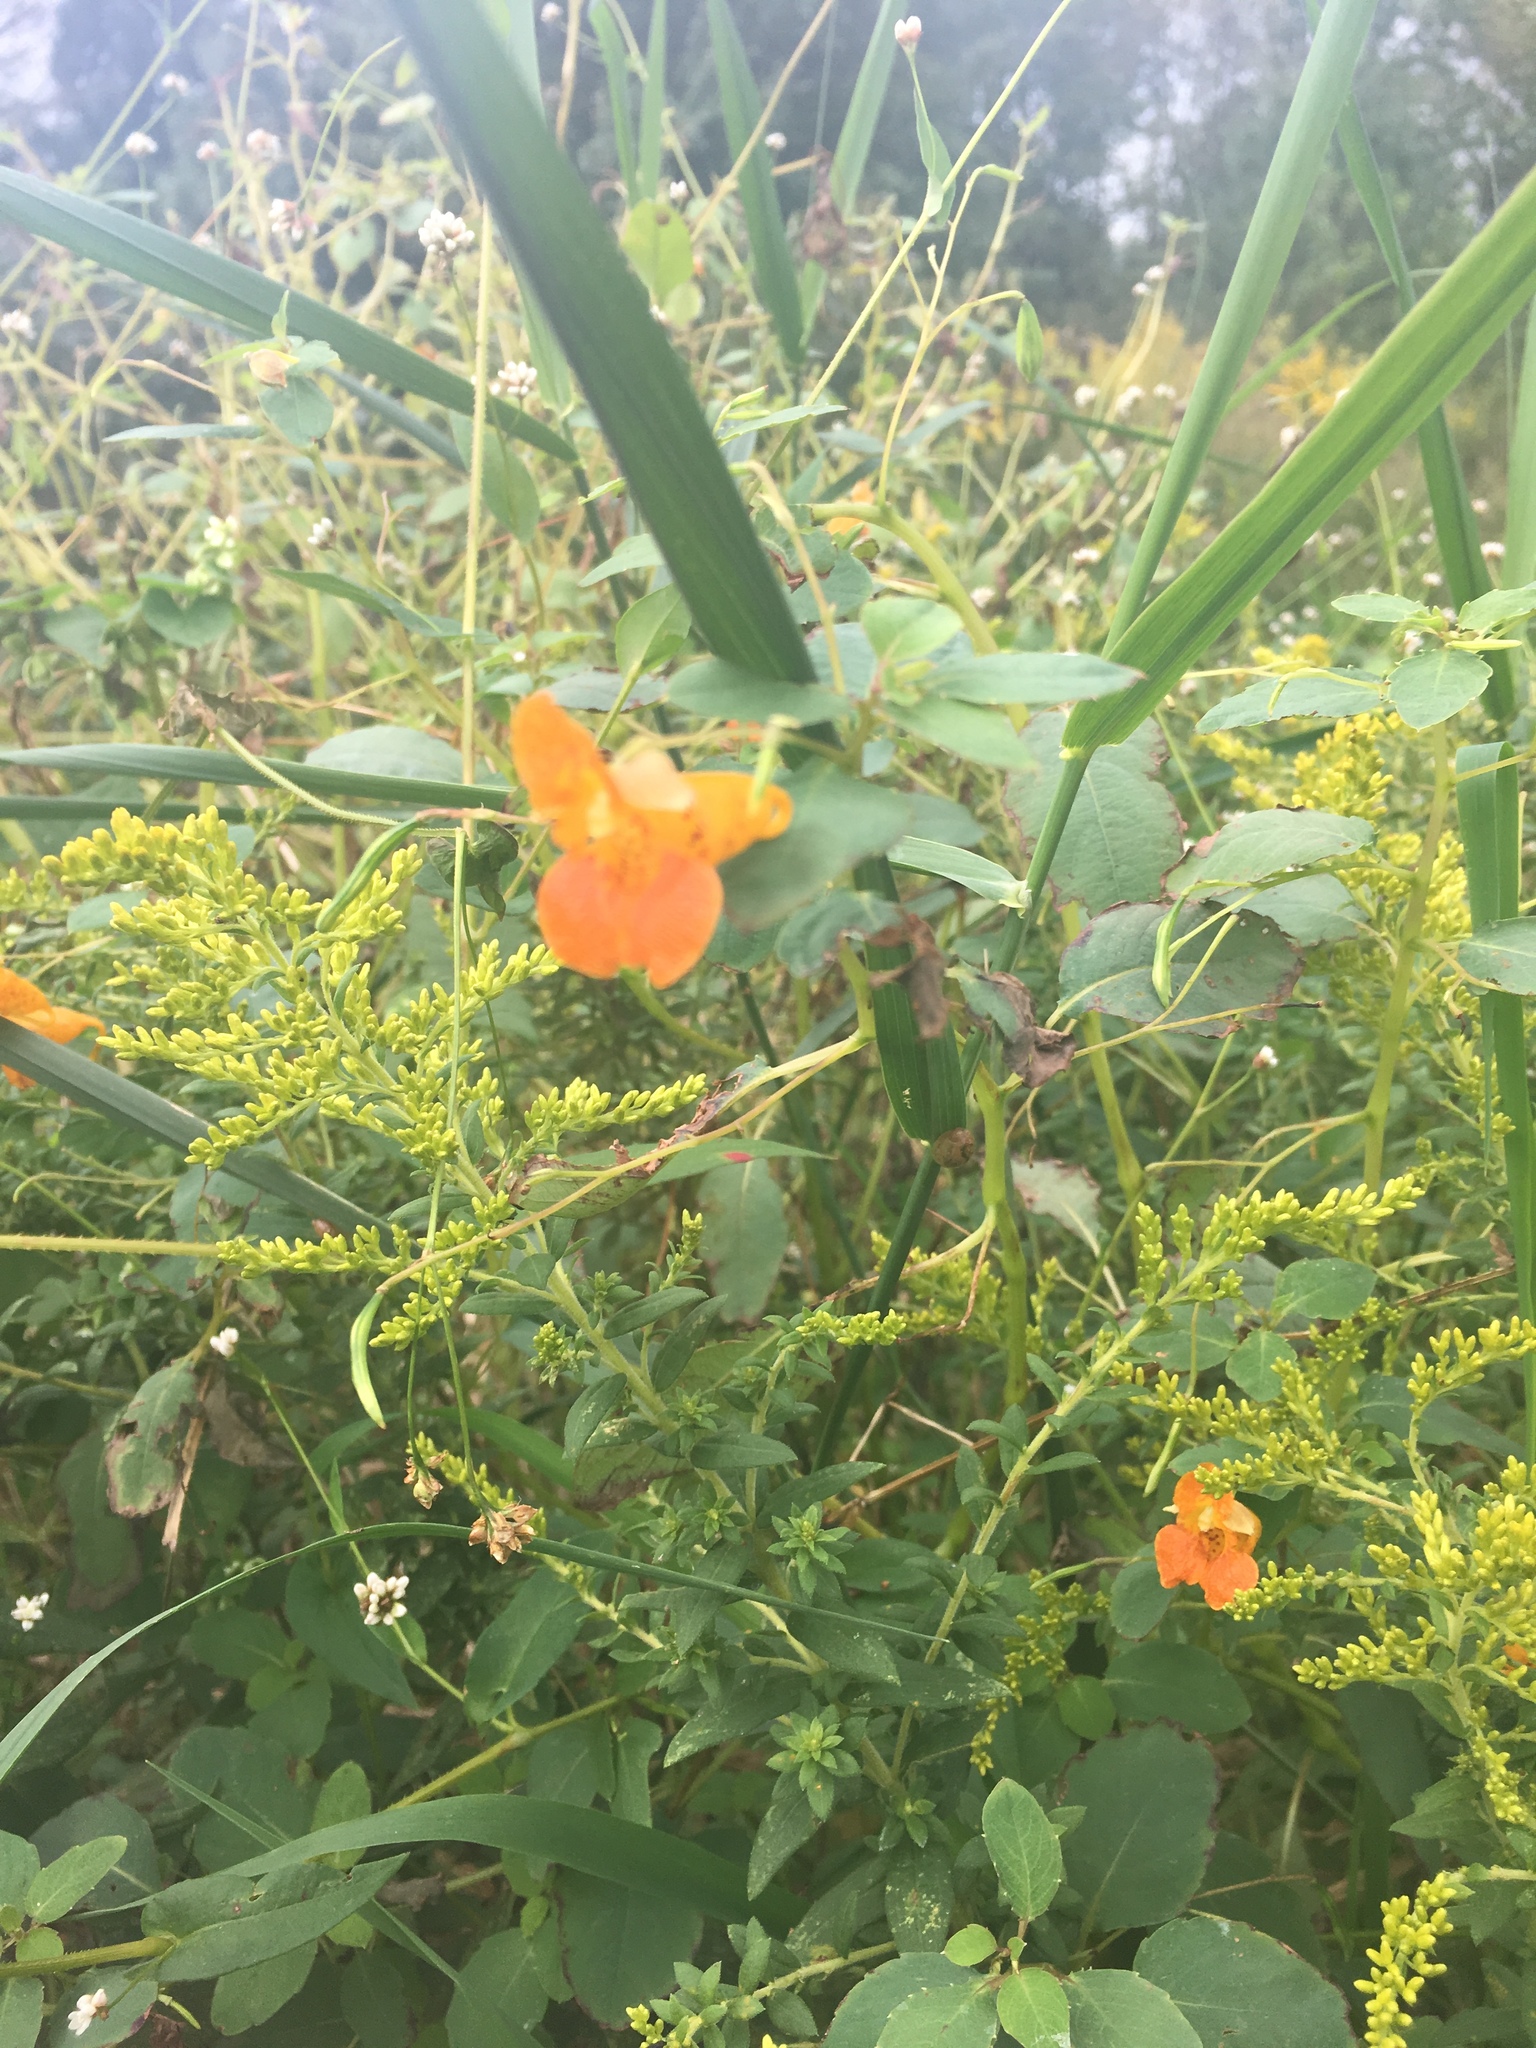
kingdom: Plantae
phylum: Tracheophyta
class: Magnoliopsida
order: Ericales
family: Balsaminaceae
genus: Impatiens
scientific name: Impatiens capensis
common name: Orange balsam
